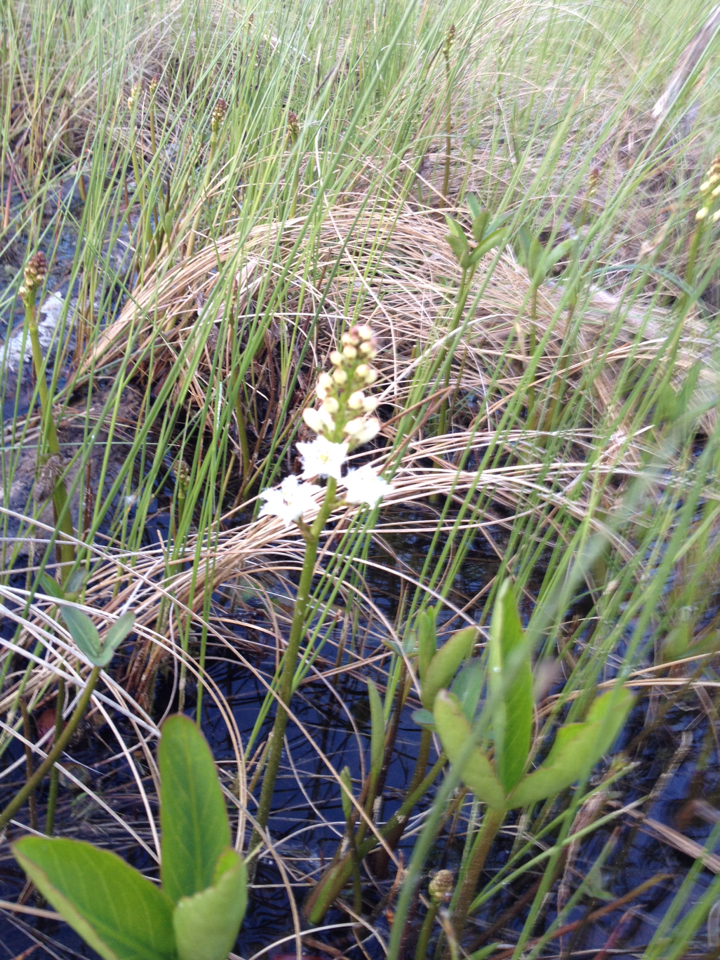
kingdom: Plantae
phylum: Tracheophyta
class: Magnoliopsida
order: Asterales
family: Menyanthaceae
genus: Menyanthes
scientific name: Menyanthes trifoliata
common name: Bogbean
